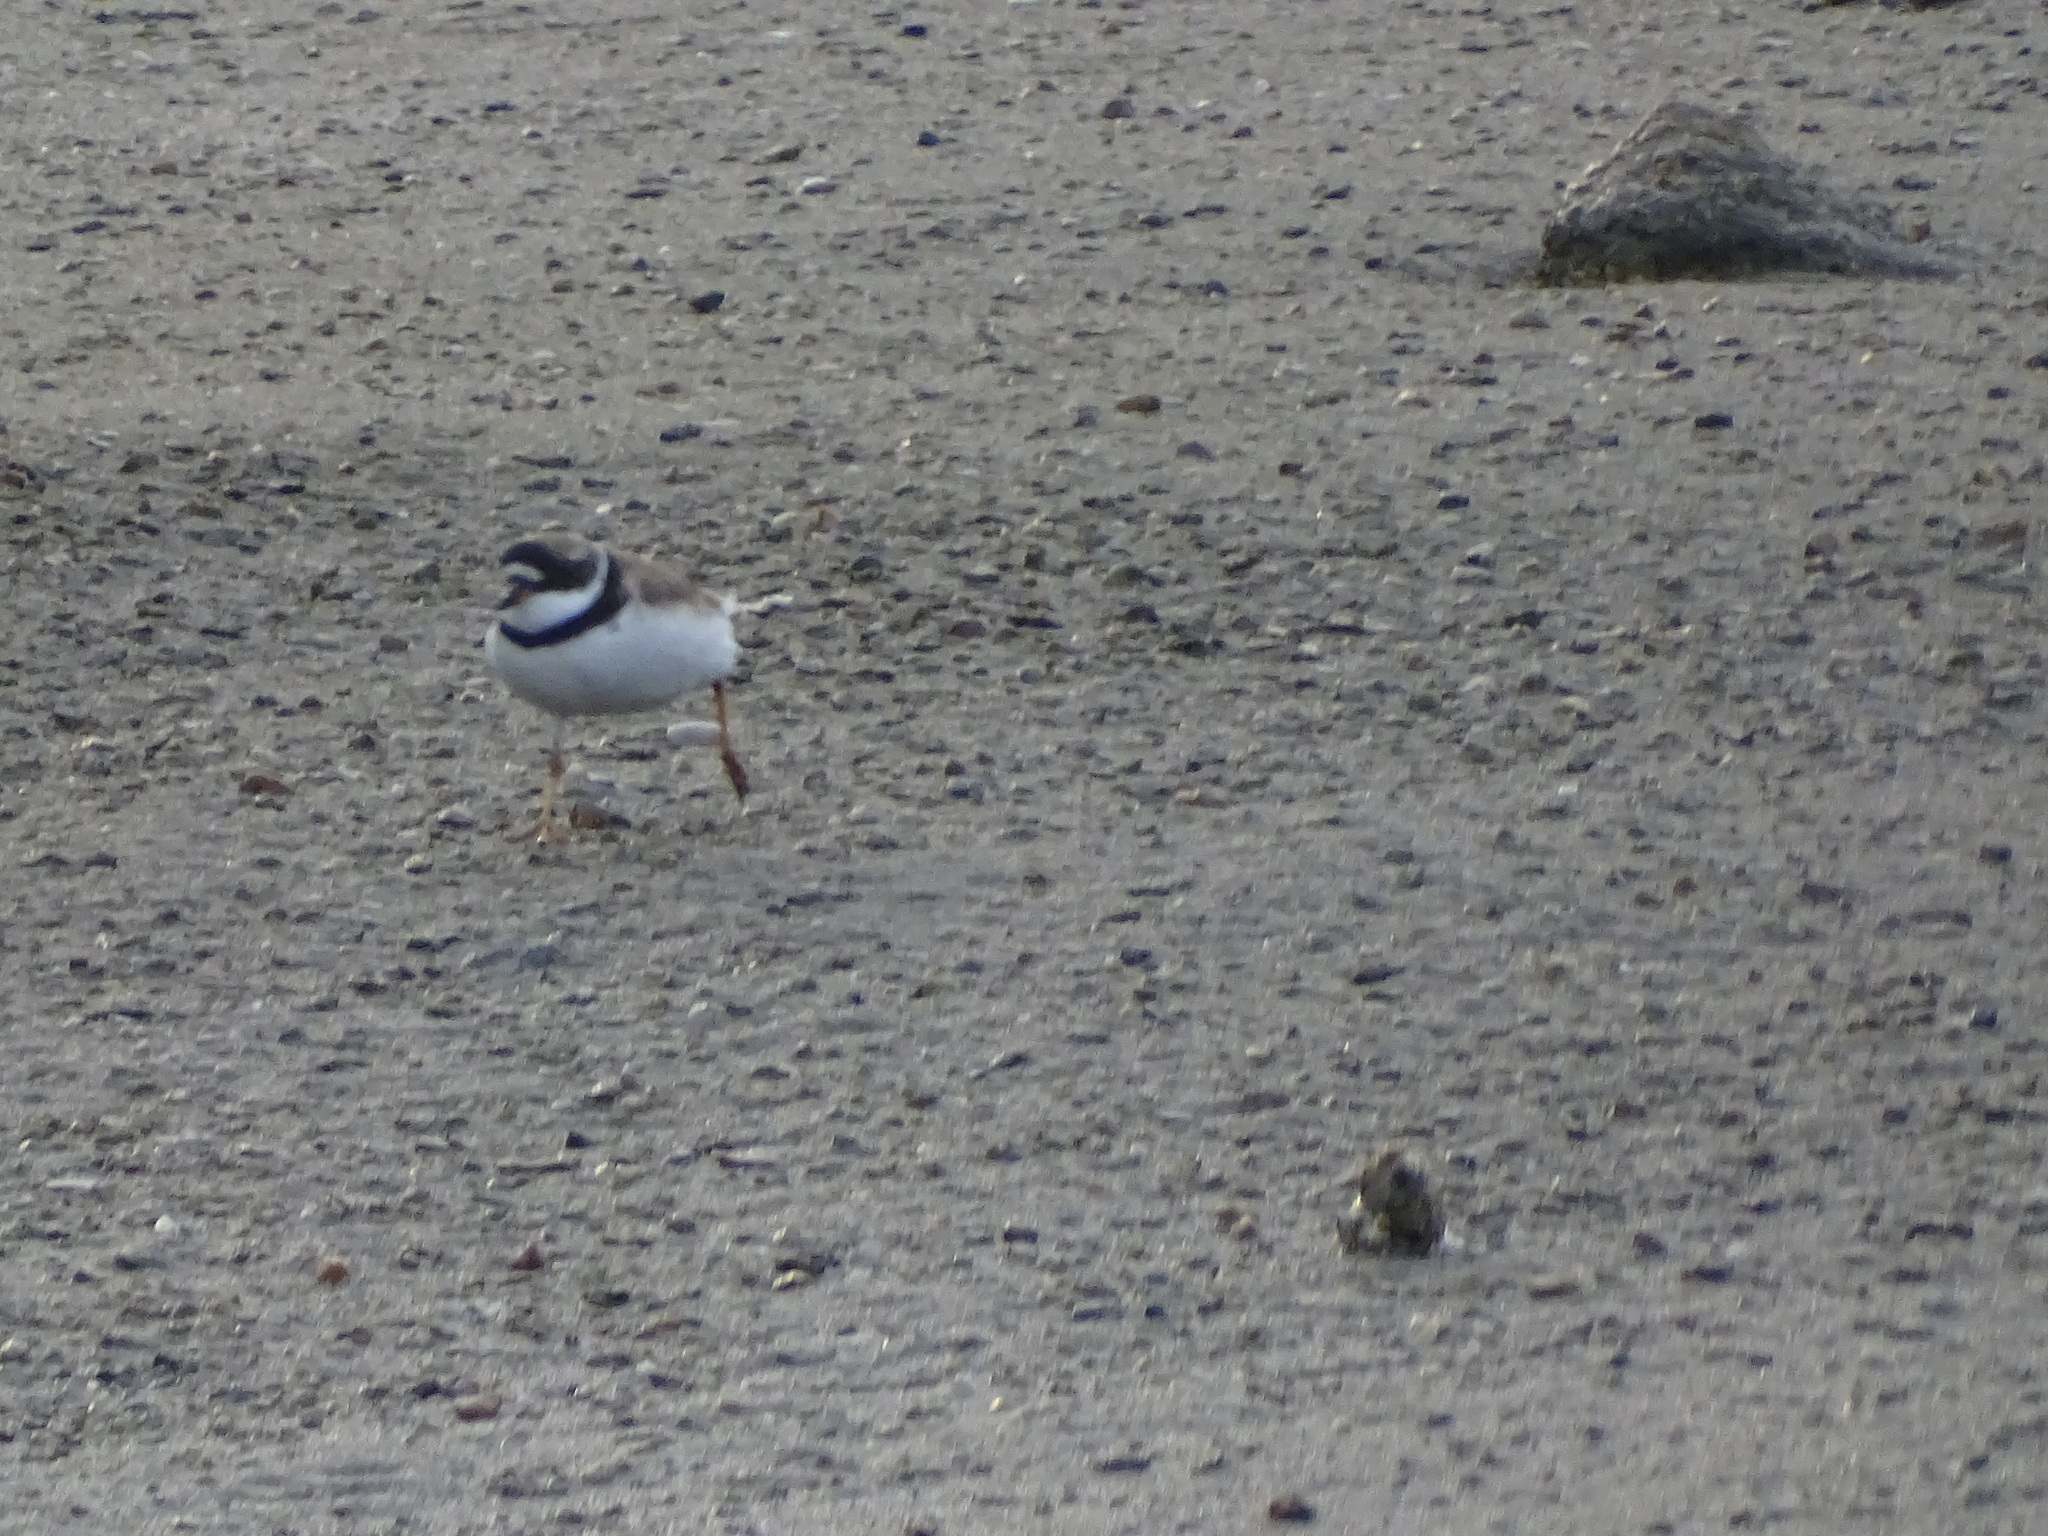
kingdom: Animalia
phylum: Chordata
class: Aves
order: Charadriiformes
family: Charadriidae
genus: Charadrius
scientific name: Charadrius semipalmatus
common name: Semipalmated plover
